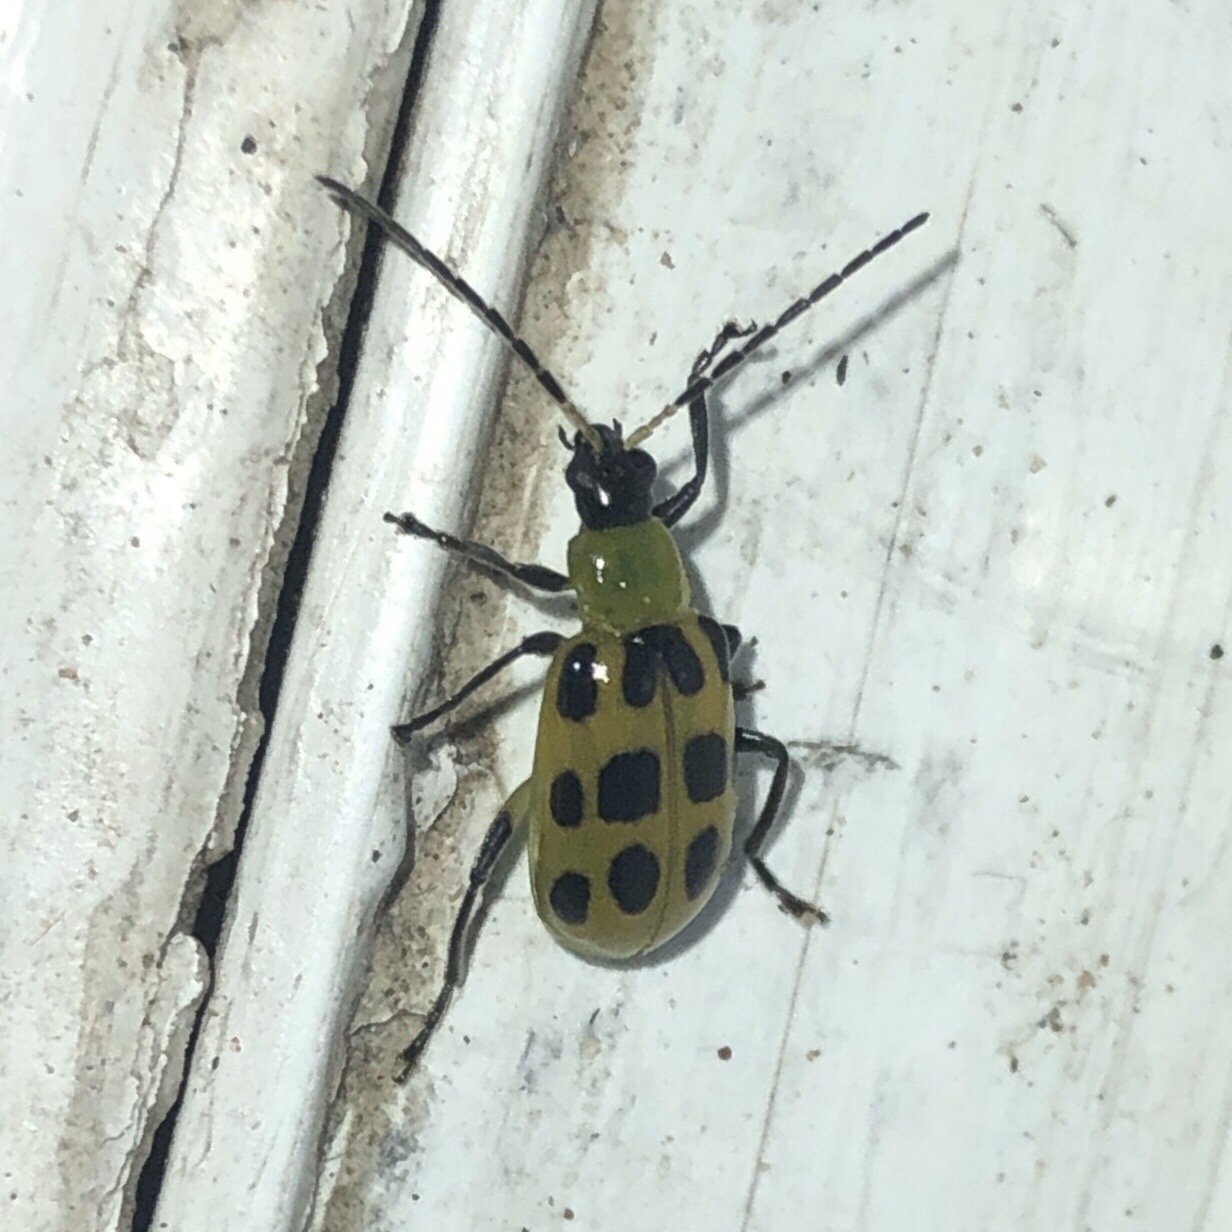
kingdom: Animalia
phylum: Arthropoda
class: Insecta
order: Coleoptera
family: Chrysomelidae
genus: Diabrotica
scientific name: Diabrotica undecimpunctata
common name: Spotted cucumber beetle
